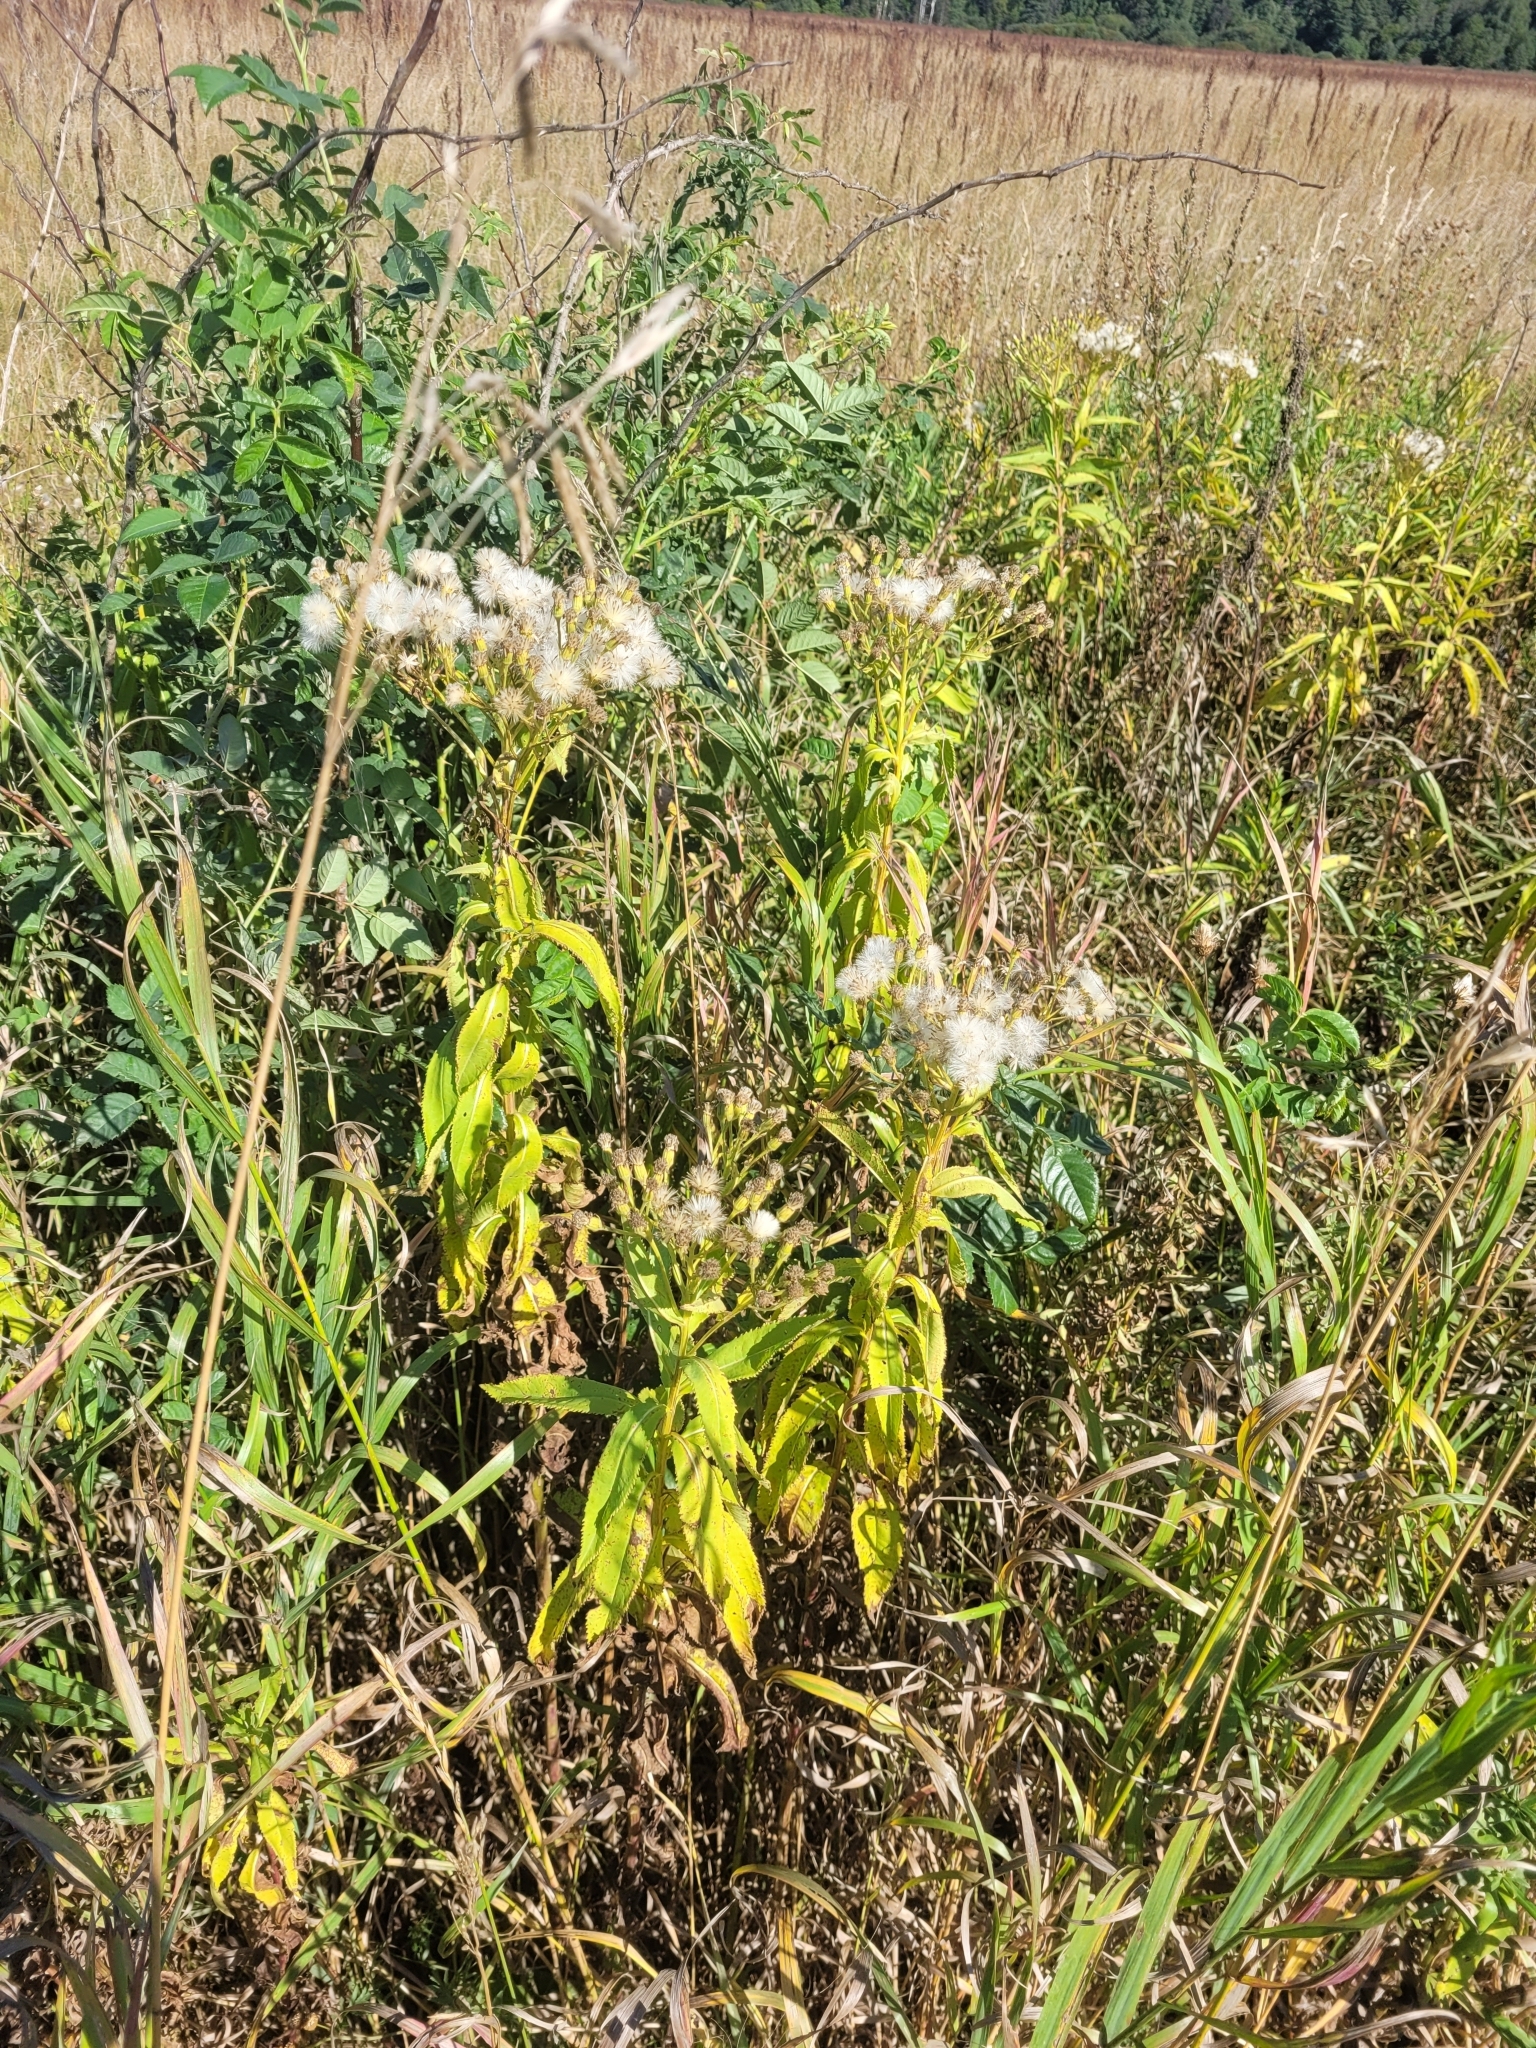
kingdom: Plantae
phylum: Tracheophyta
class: Magnoliopsida
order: Asterales
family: Asteraceae
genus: Senecio
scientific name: Senecio sarracenicus
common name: Broad-leaved ragwort
